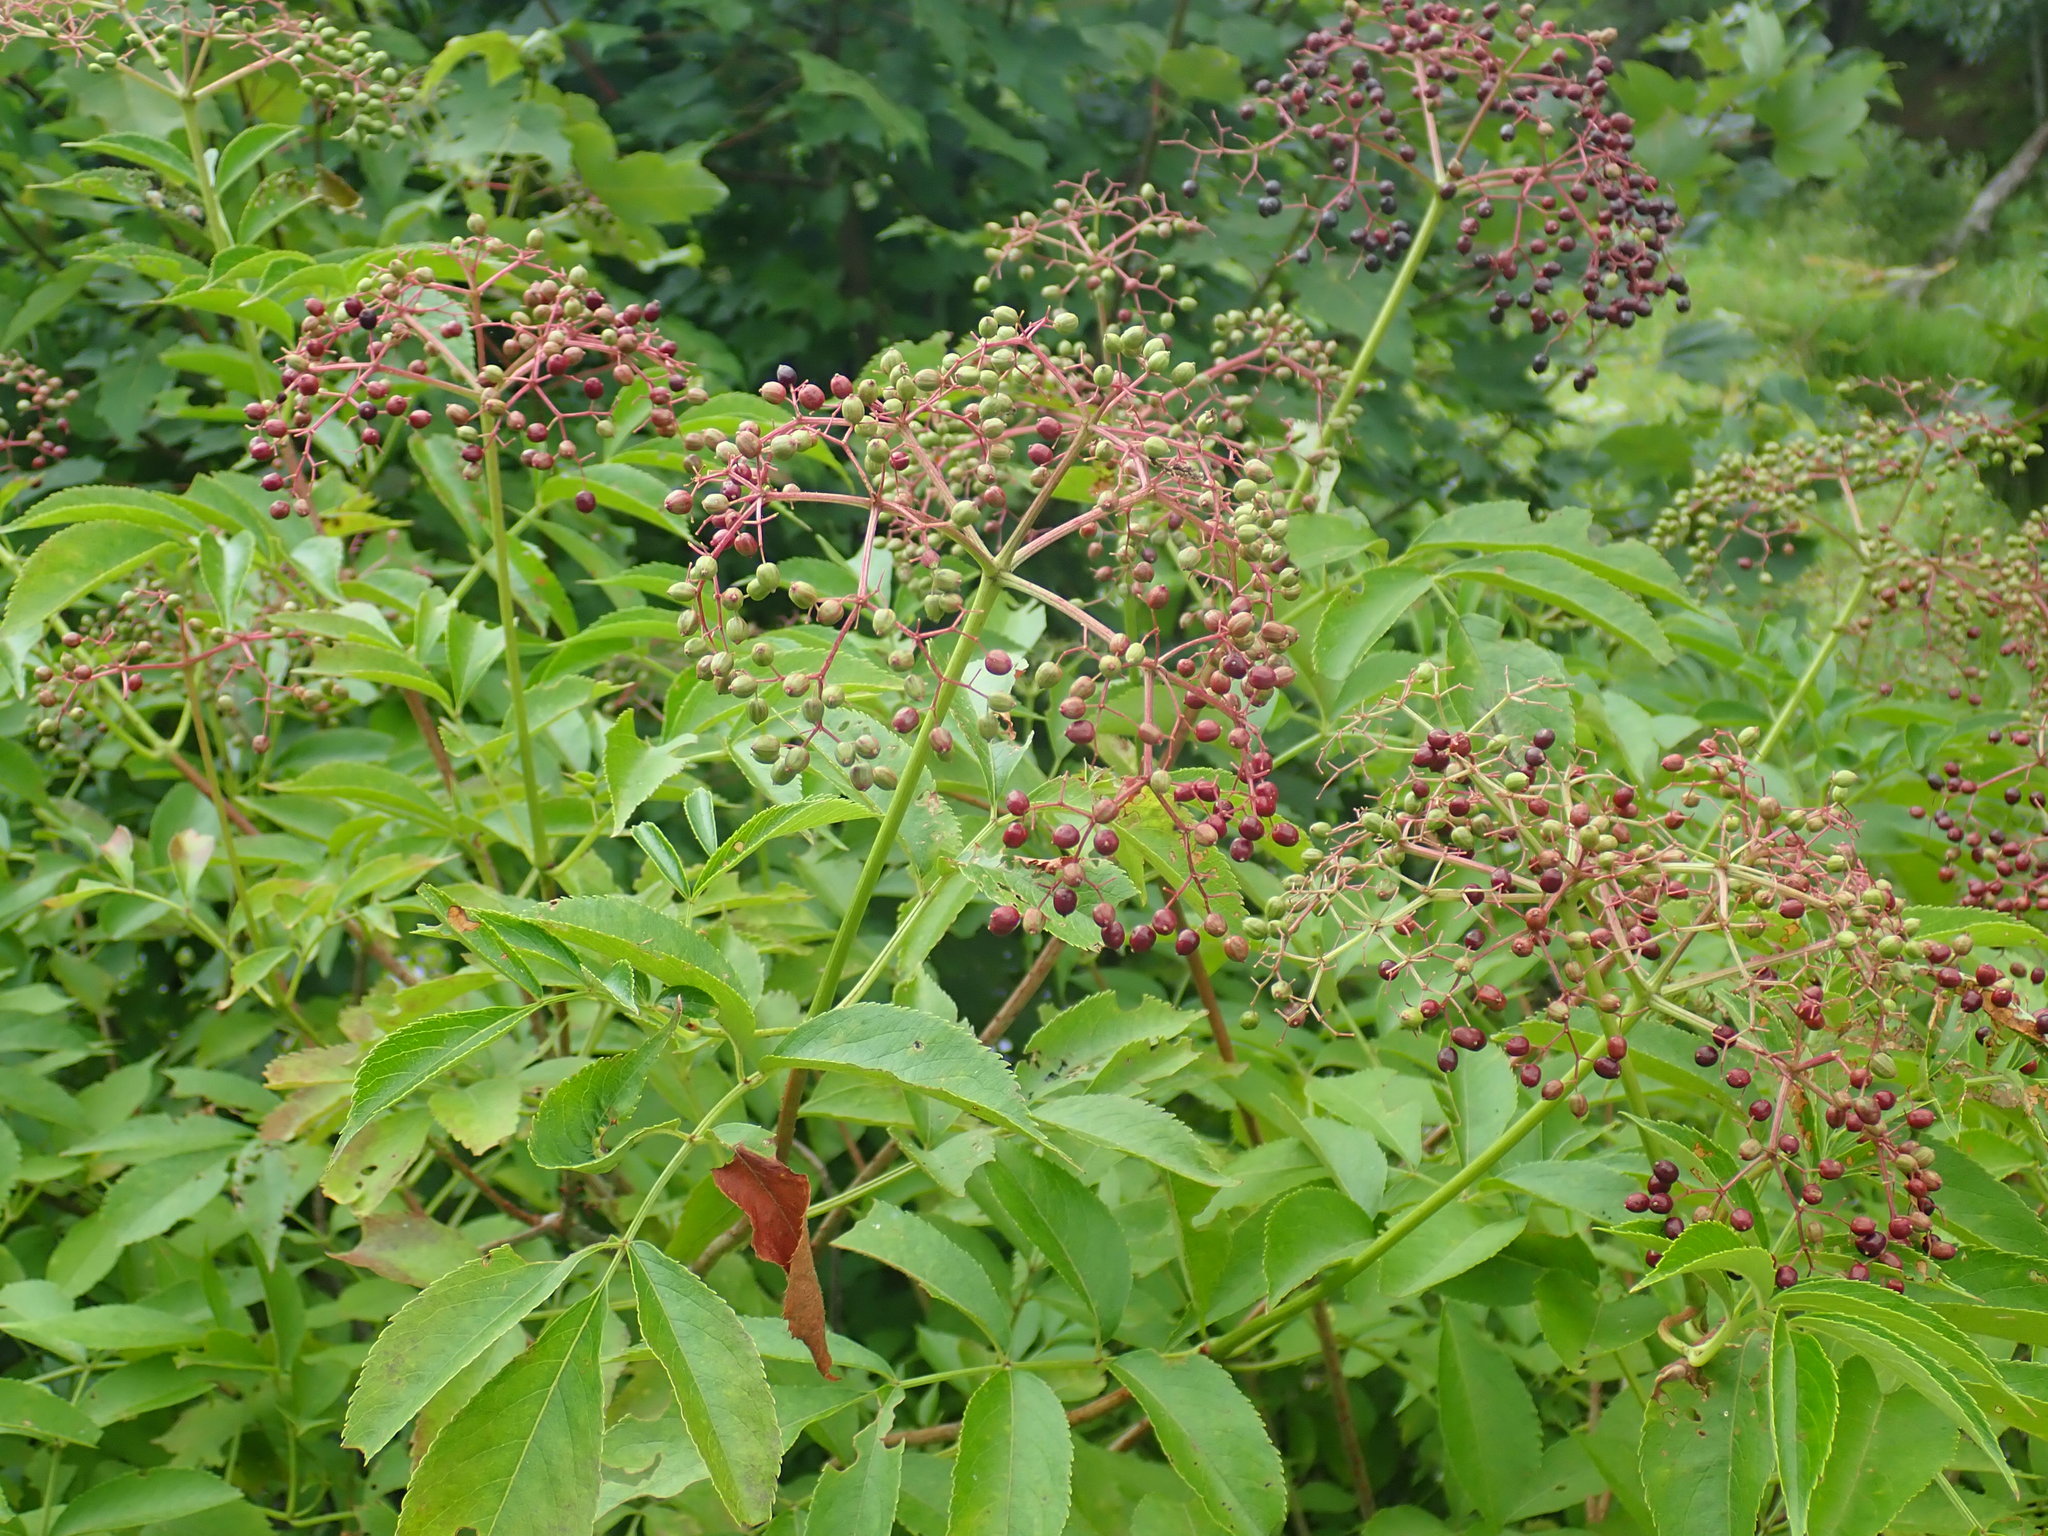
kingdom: Plantae
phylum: Tracheophyta
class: Magnoliopsida
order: Dipsacales
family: Viburnaceae
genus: Sambucus
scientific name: Sambucus canadensis
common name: American elder
